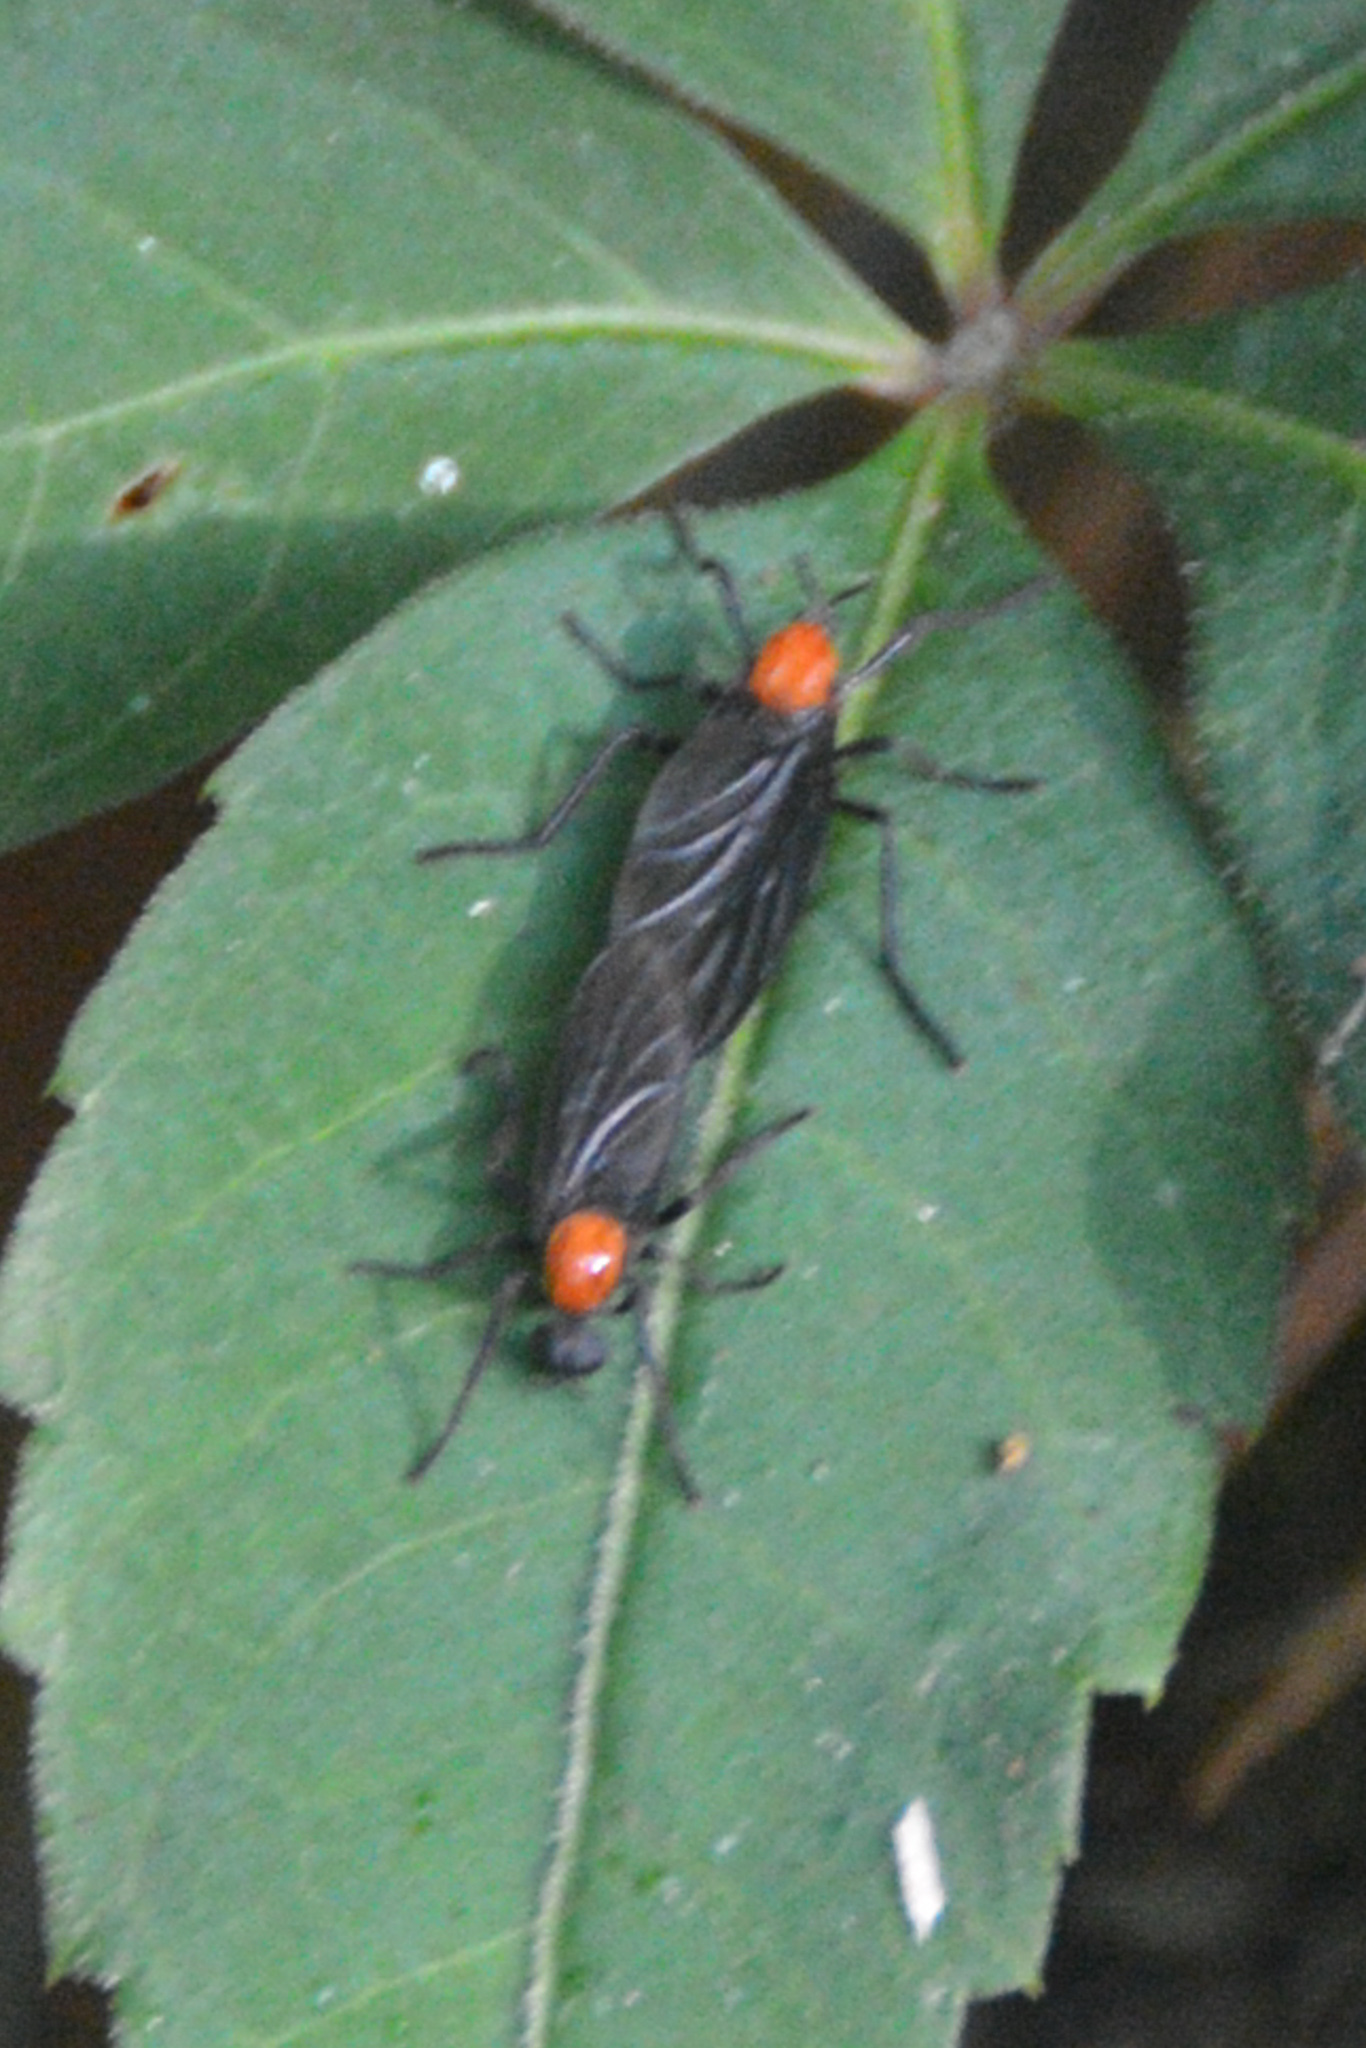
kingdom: Animalia
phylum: Arthropoda
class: Insecta
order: Diptera
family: Bibionidae
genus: Plecia
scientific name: Plecia nearctica
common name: March fly
